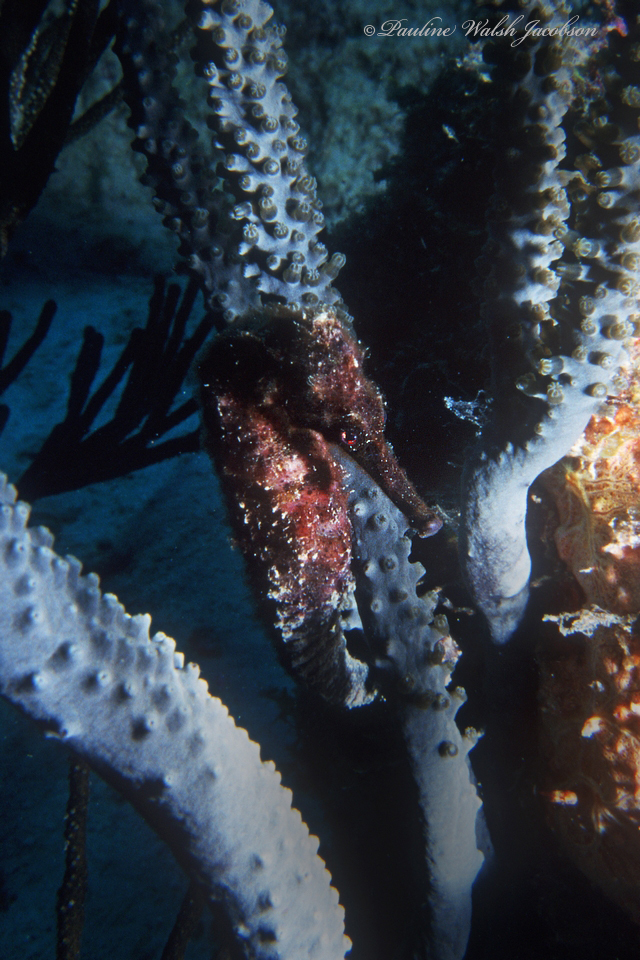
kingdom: Animalia
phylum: Chordata
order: Syngnathiformes
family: Syngnathidae
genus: Hippocampus
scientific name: Hippocampus reidi
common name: Slender seahorse
